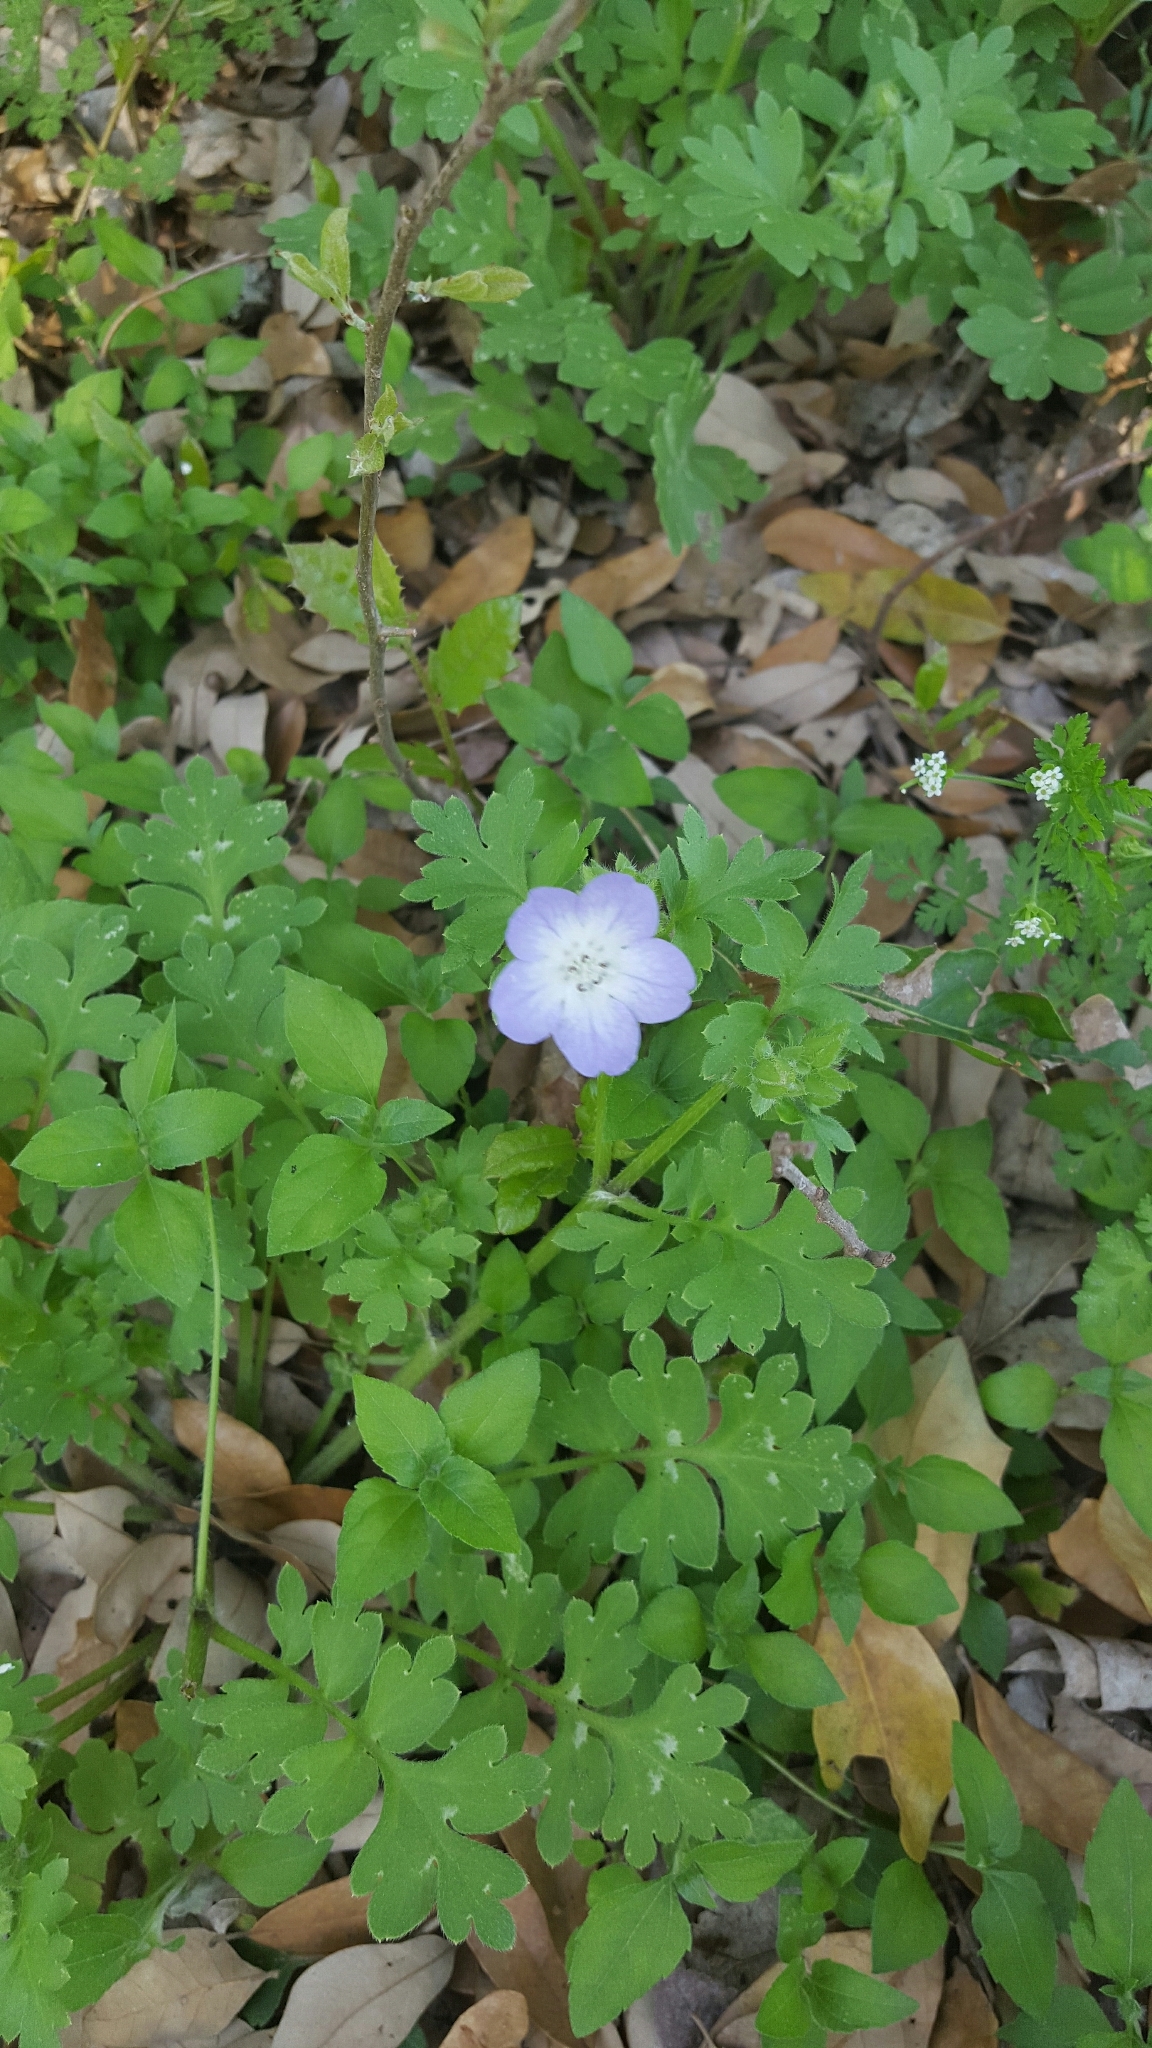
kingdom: Plantae
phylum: Tracheophyta
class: Magnoliopsida
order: Boraginales
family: Hydrophyllaceae
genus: Nemophila
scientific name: Nemophila phacelioides
